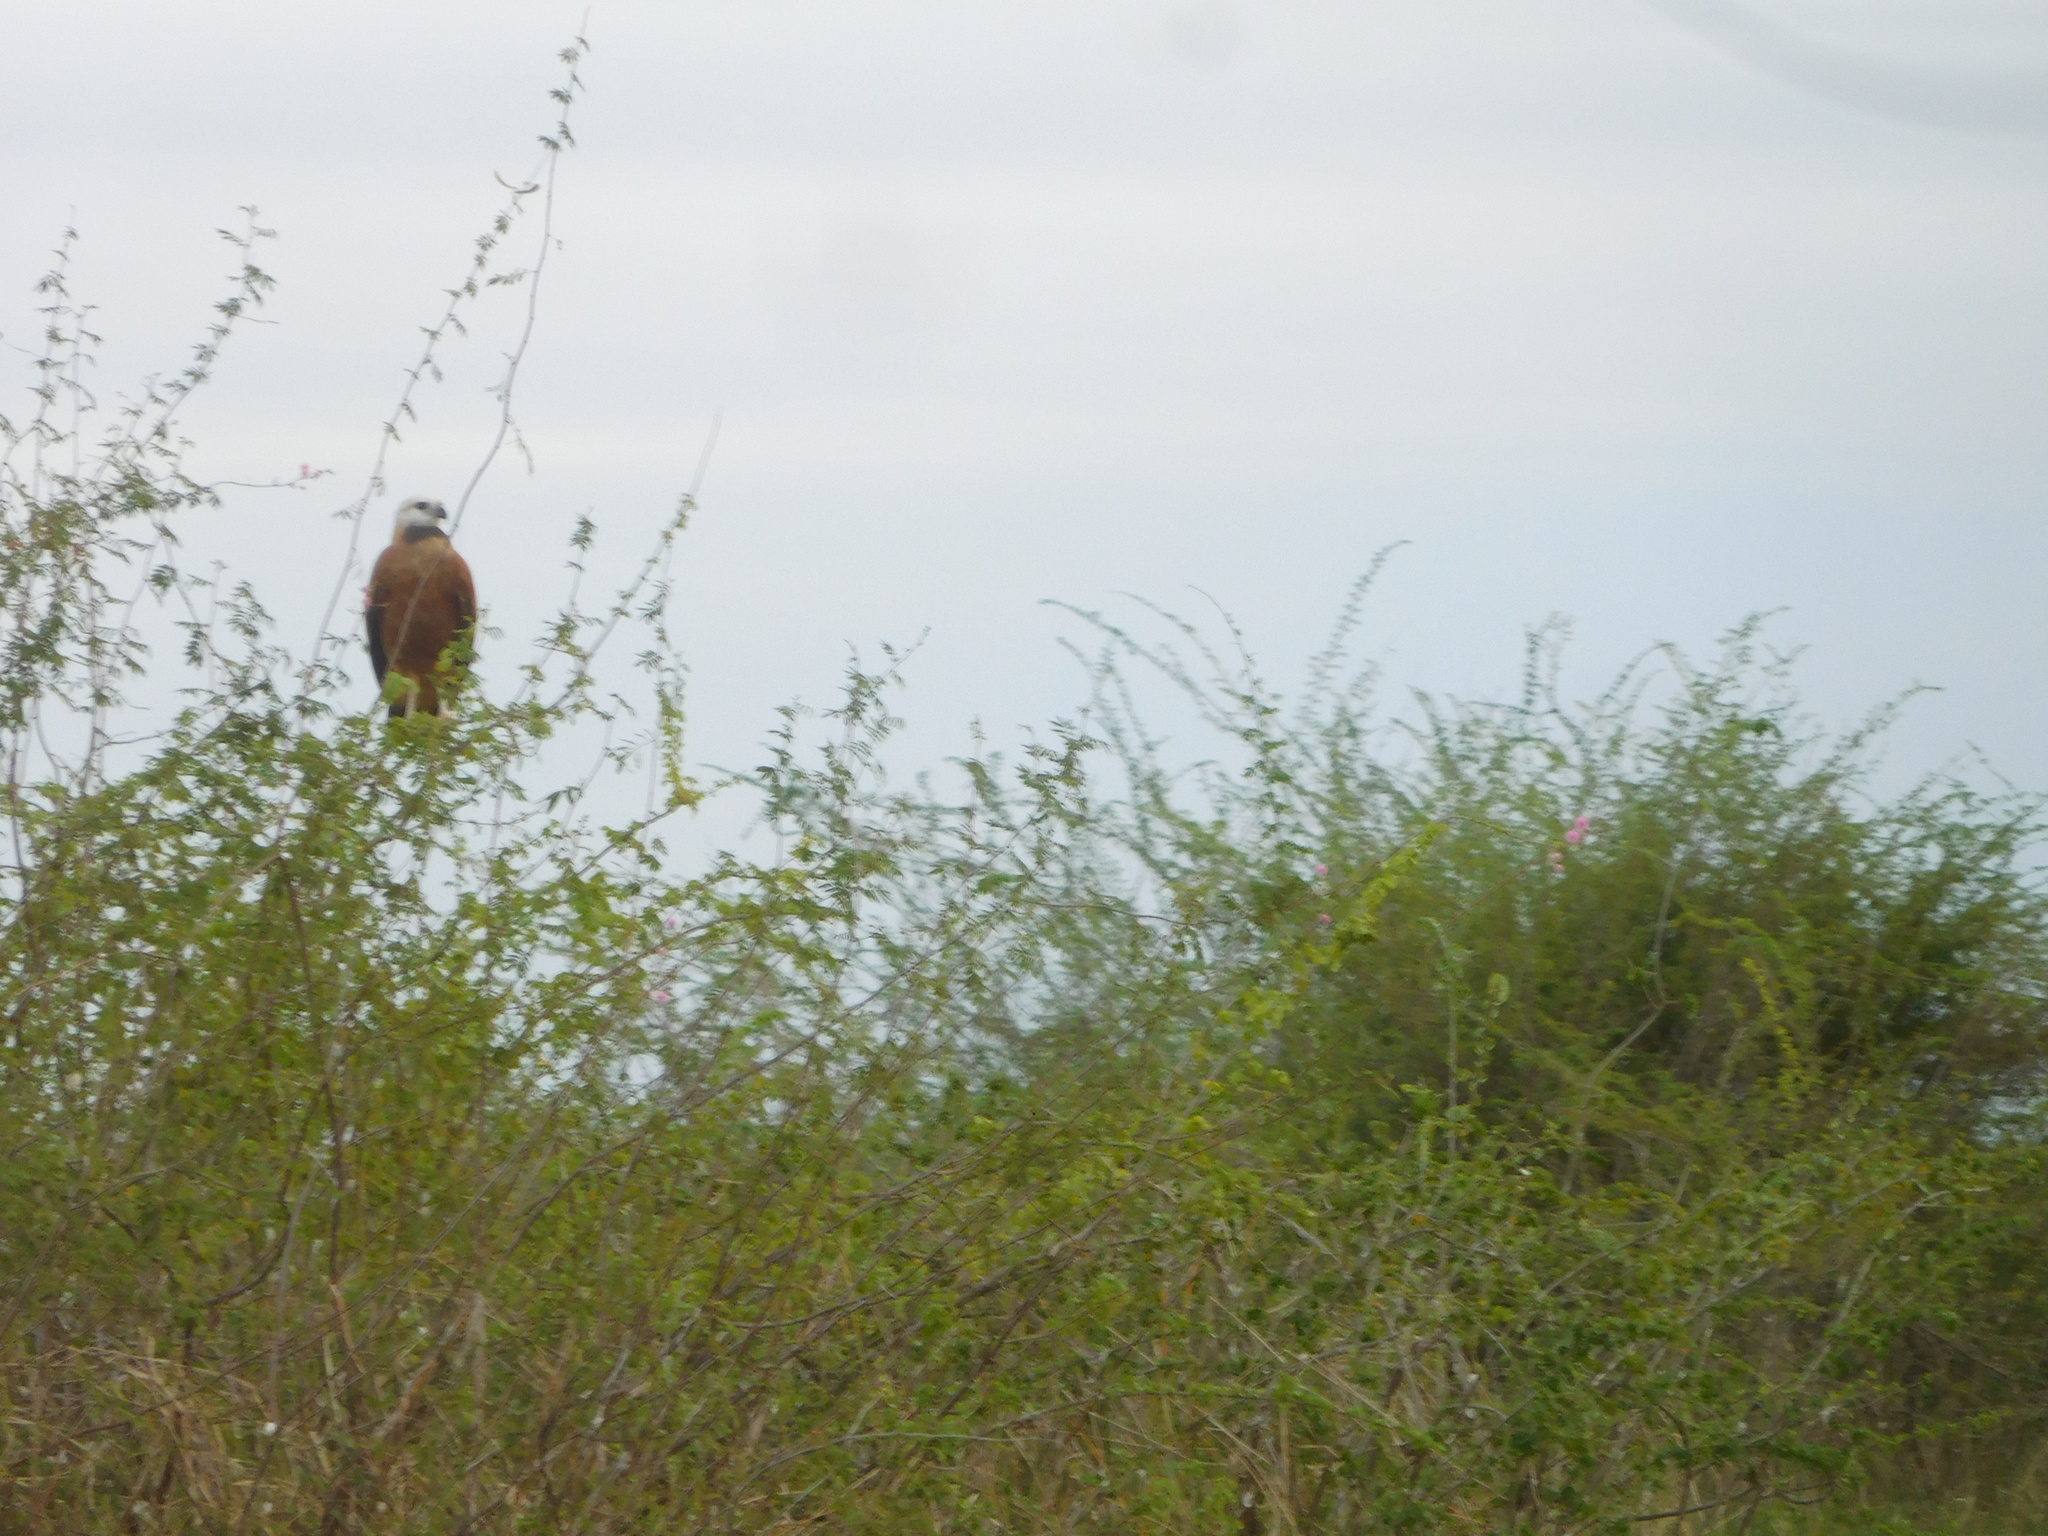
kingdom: Animalia
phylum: Chordata
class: Aves
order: Accipitriformes
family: Accipitridae
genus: Busarellus
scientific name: Busarellus nigricollis
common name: Black-collared hawk
